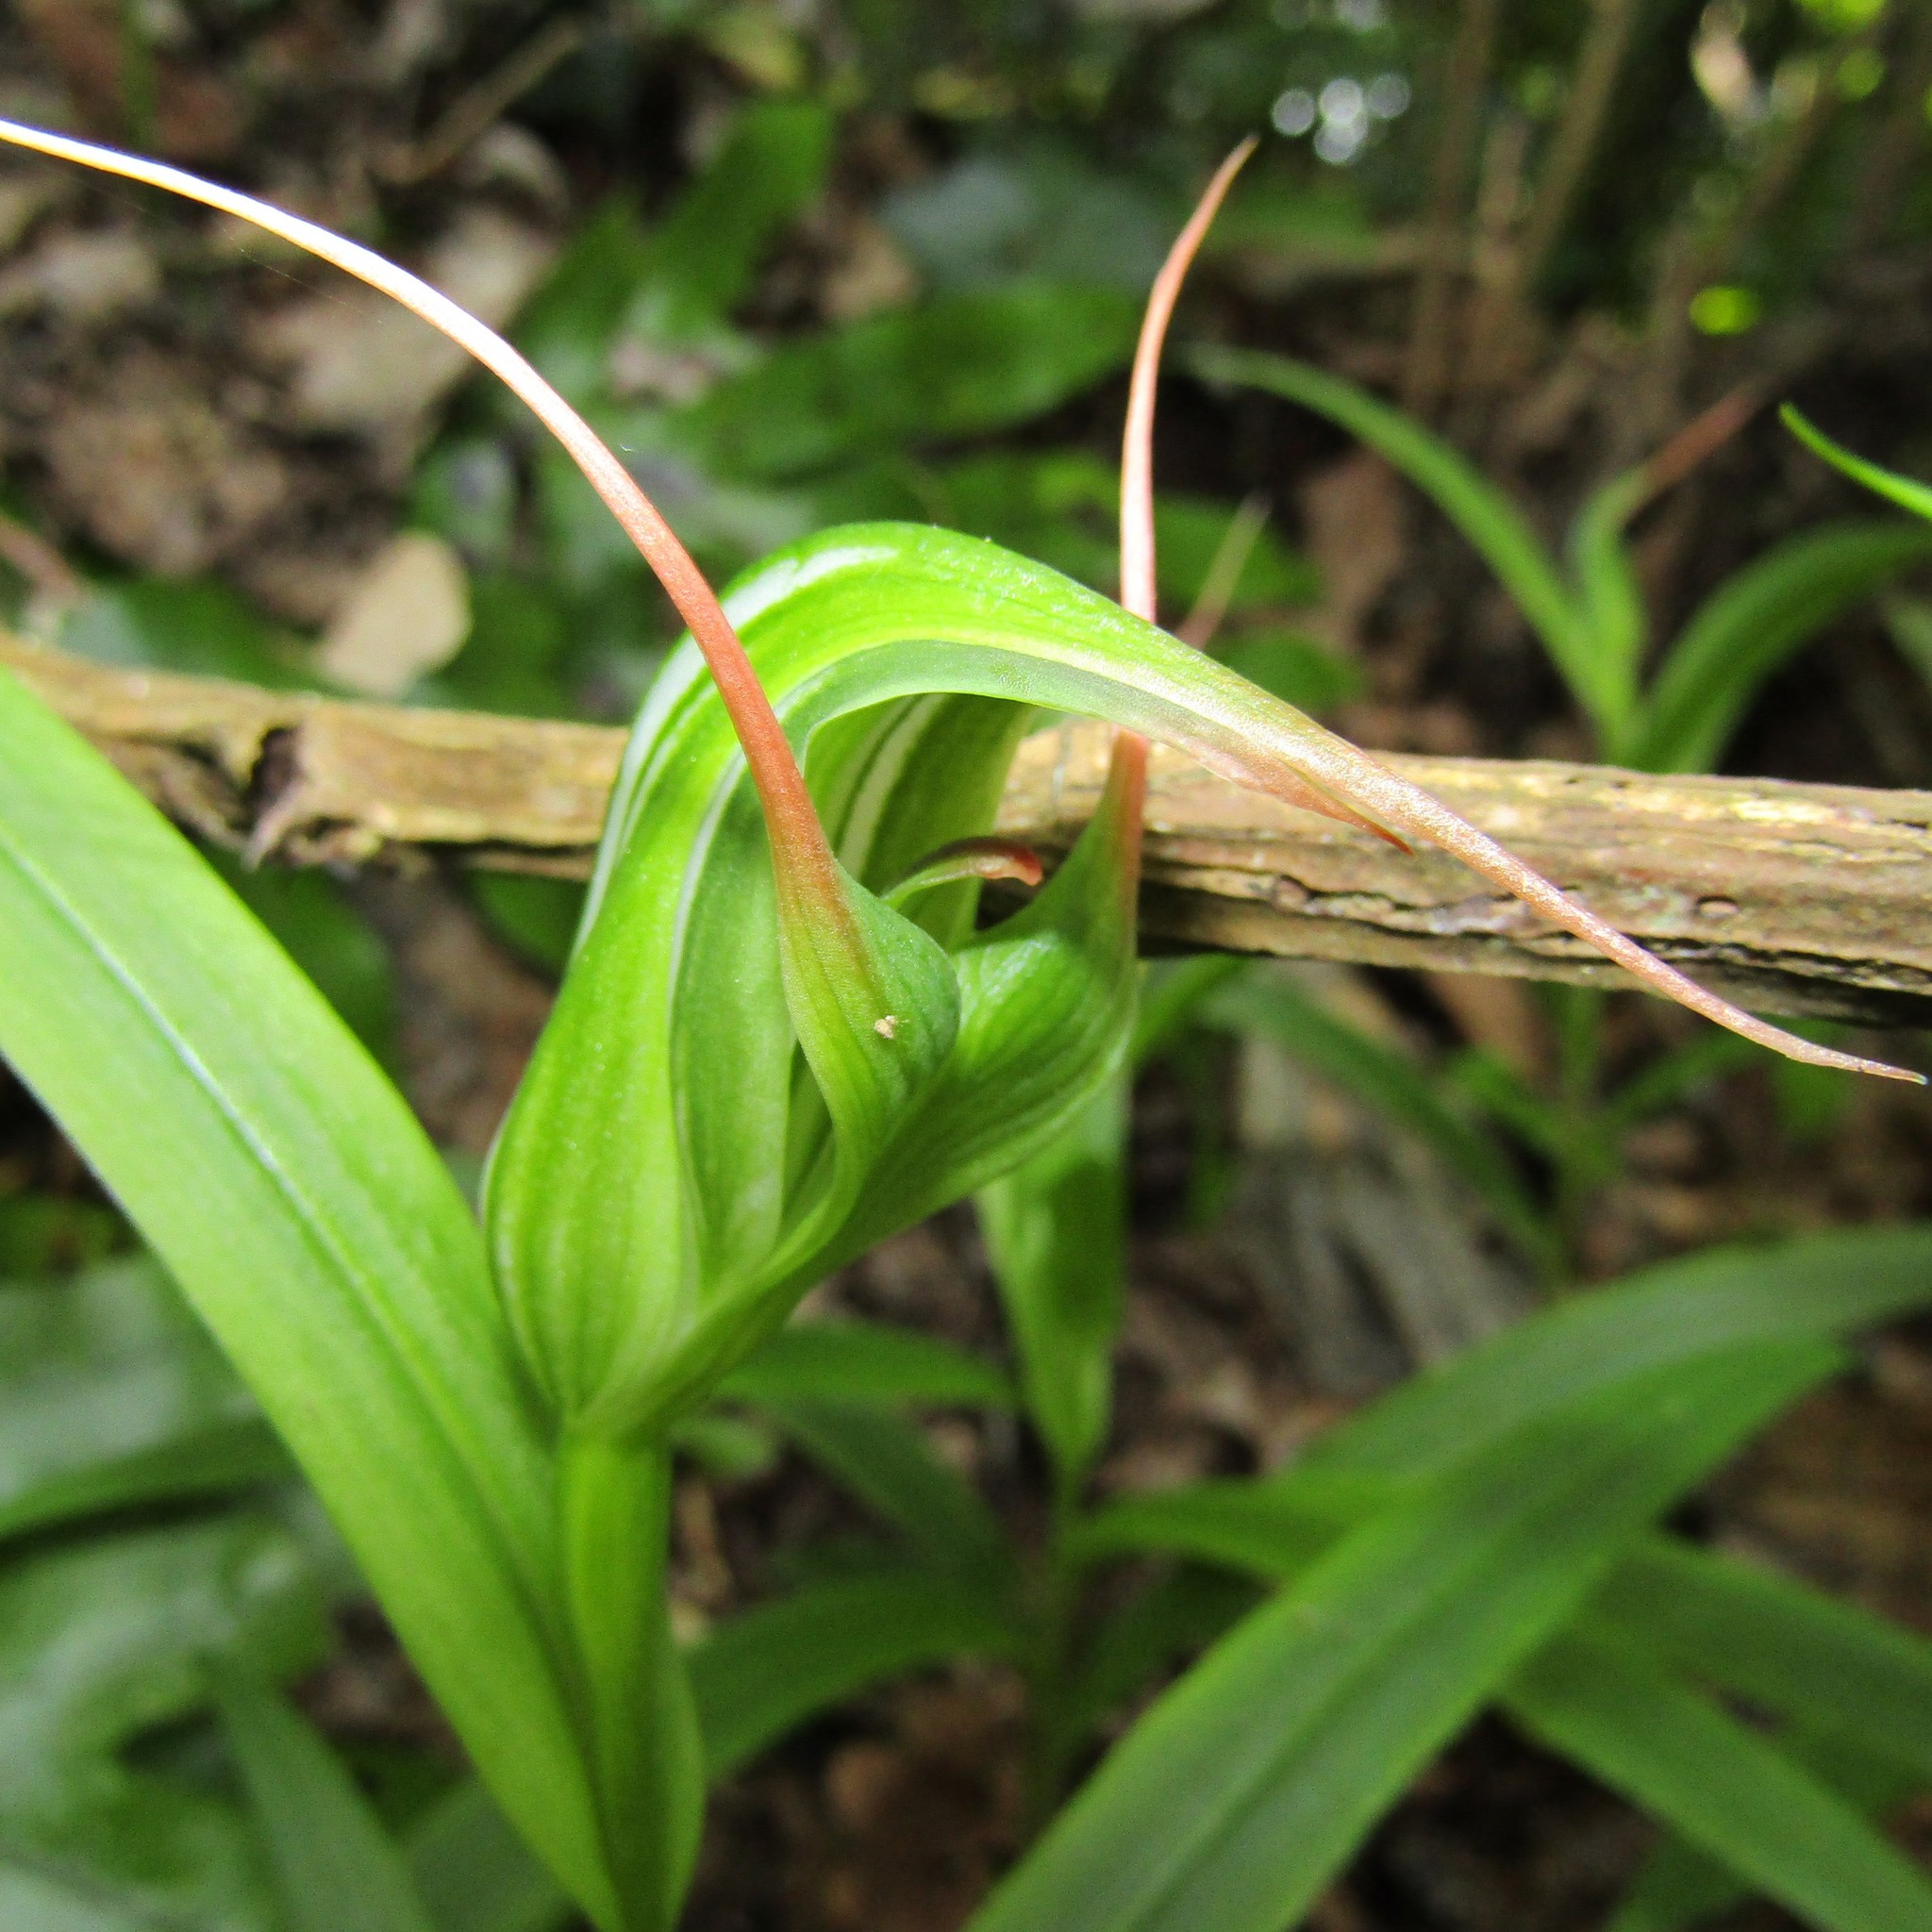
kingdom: Plantae
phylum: Tracheophyta
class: Liliopsida
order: Asparagales
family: Orchidaceae
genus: Pterostylis
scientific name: Pterostylis banksii
